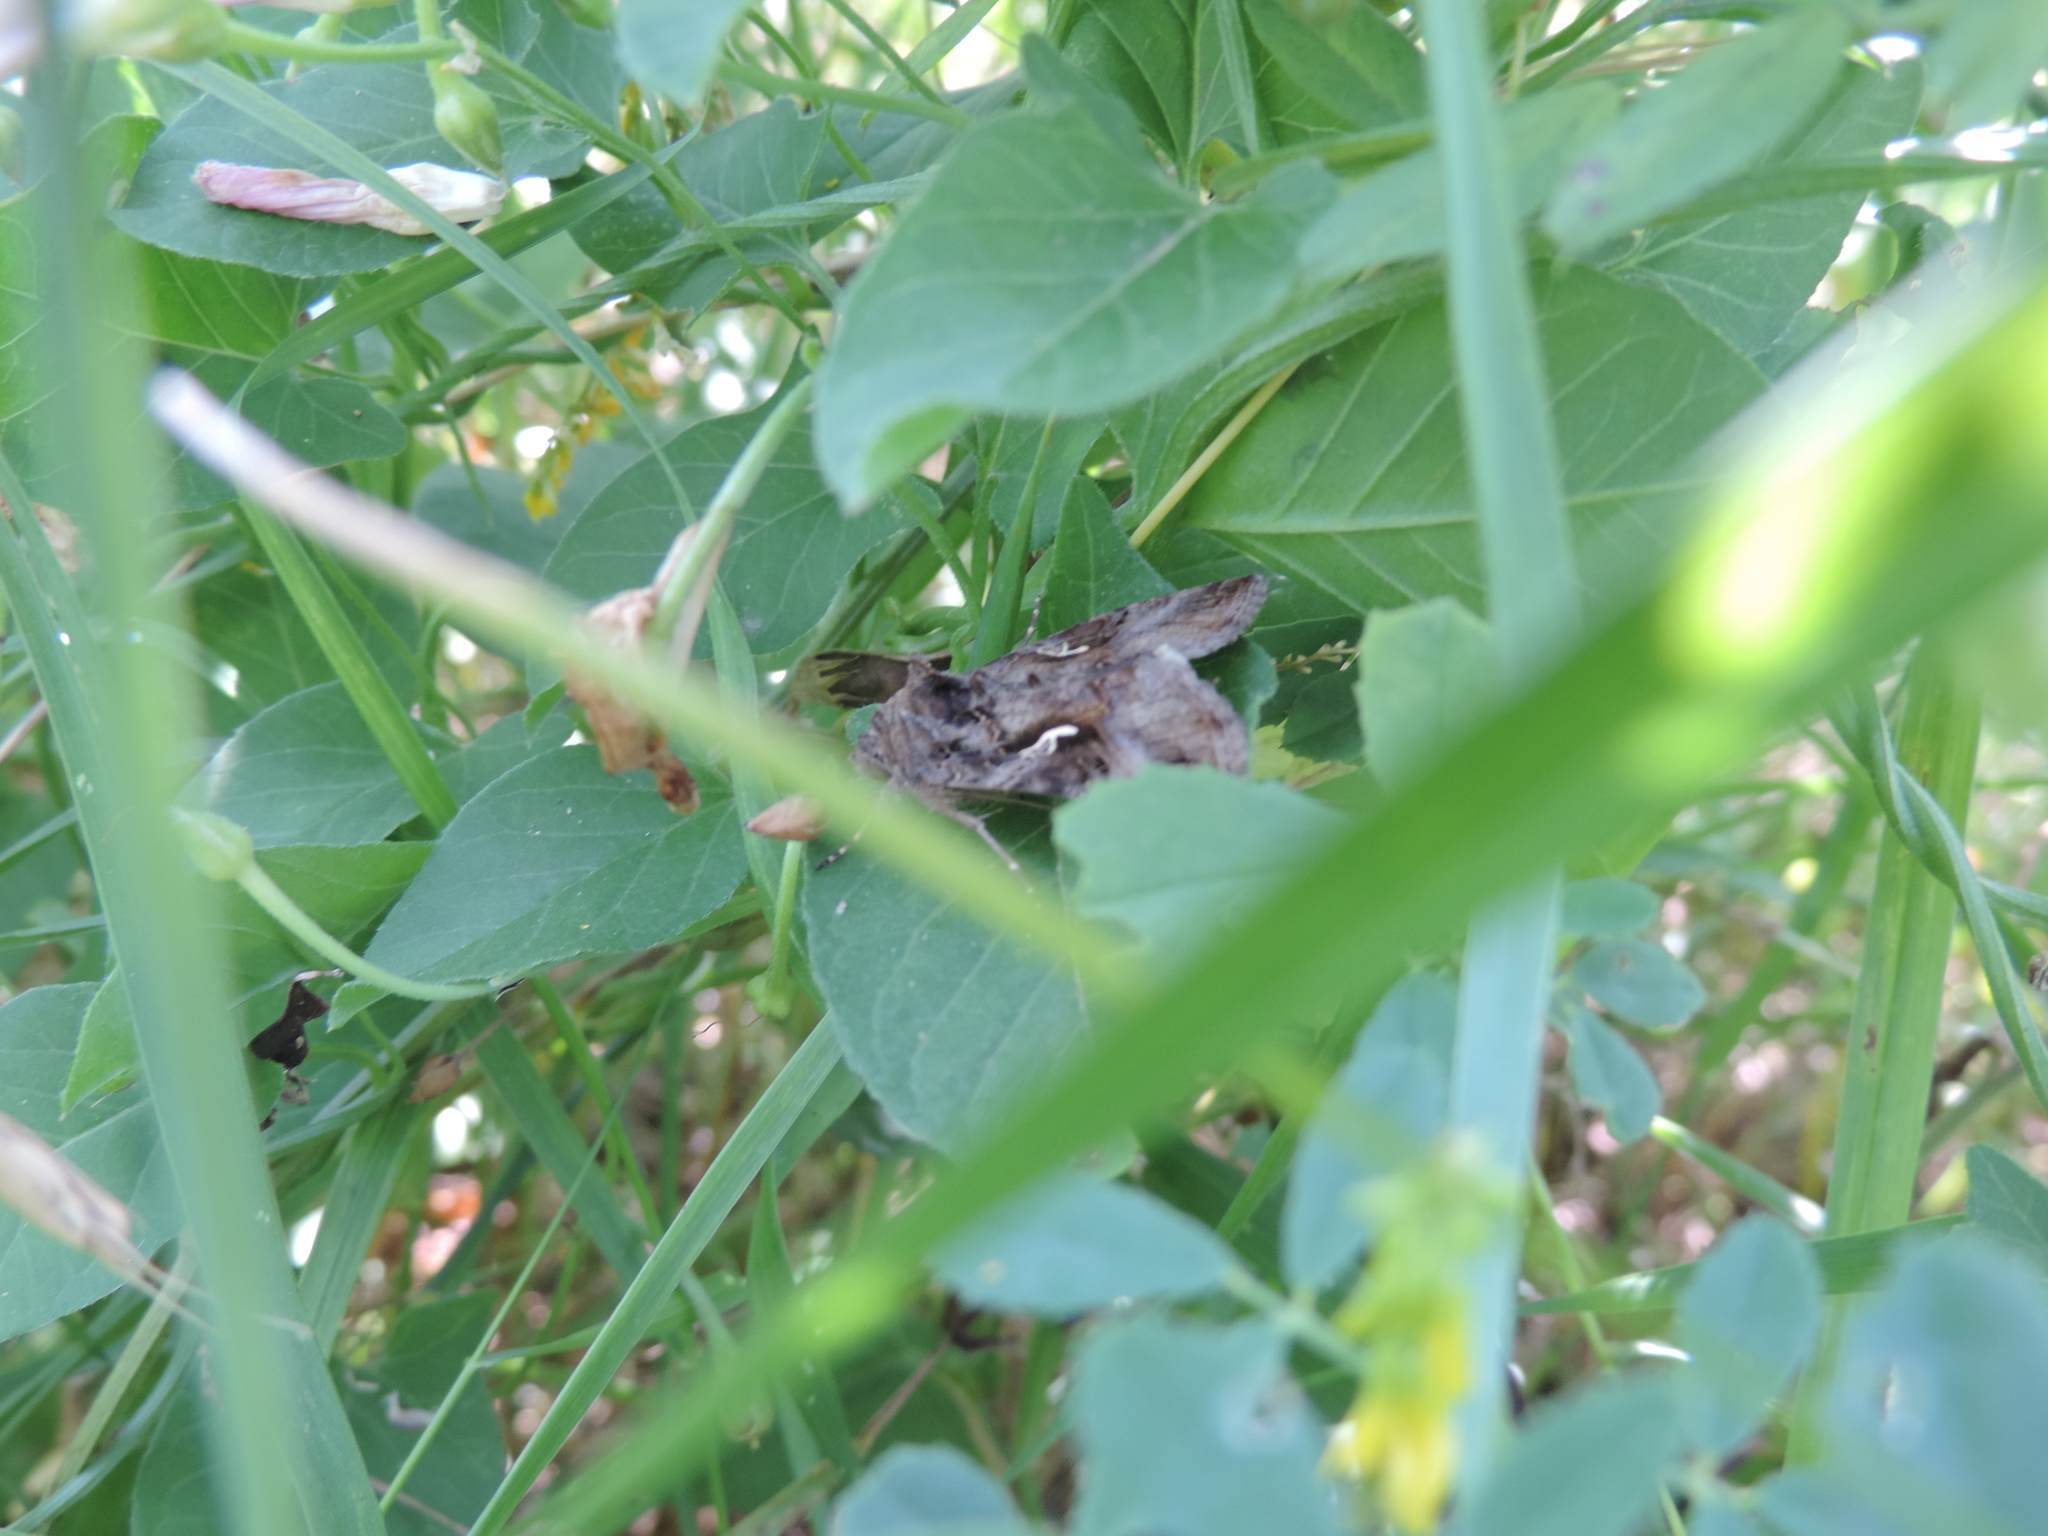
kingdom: Animalia
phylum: Arthropoda
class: Insecta
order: Lepidoptera
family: Noctuidae
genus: Autographa
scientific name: Autographa gamma
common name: Silver y
